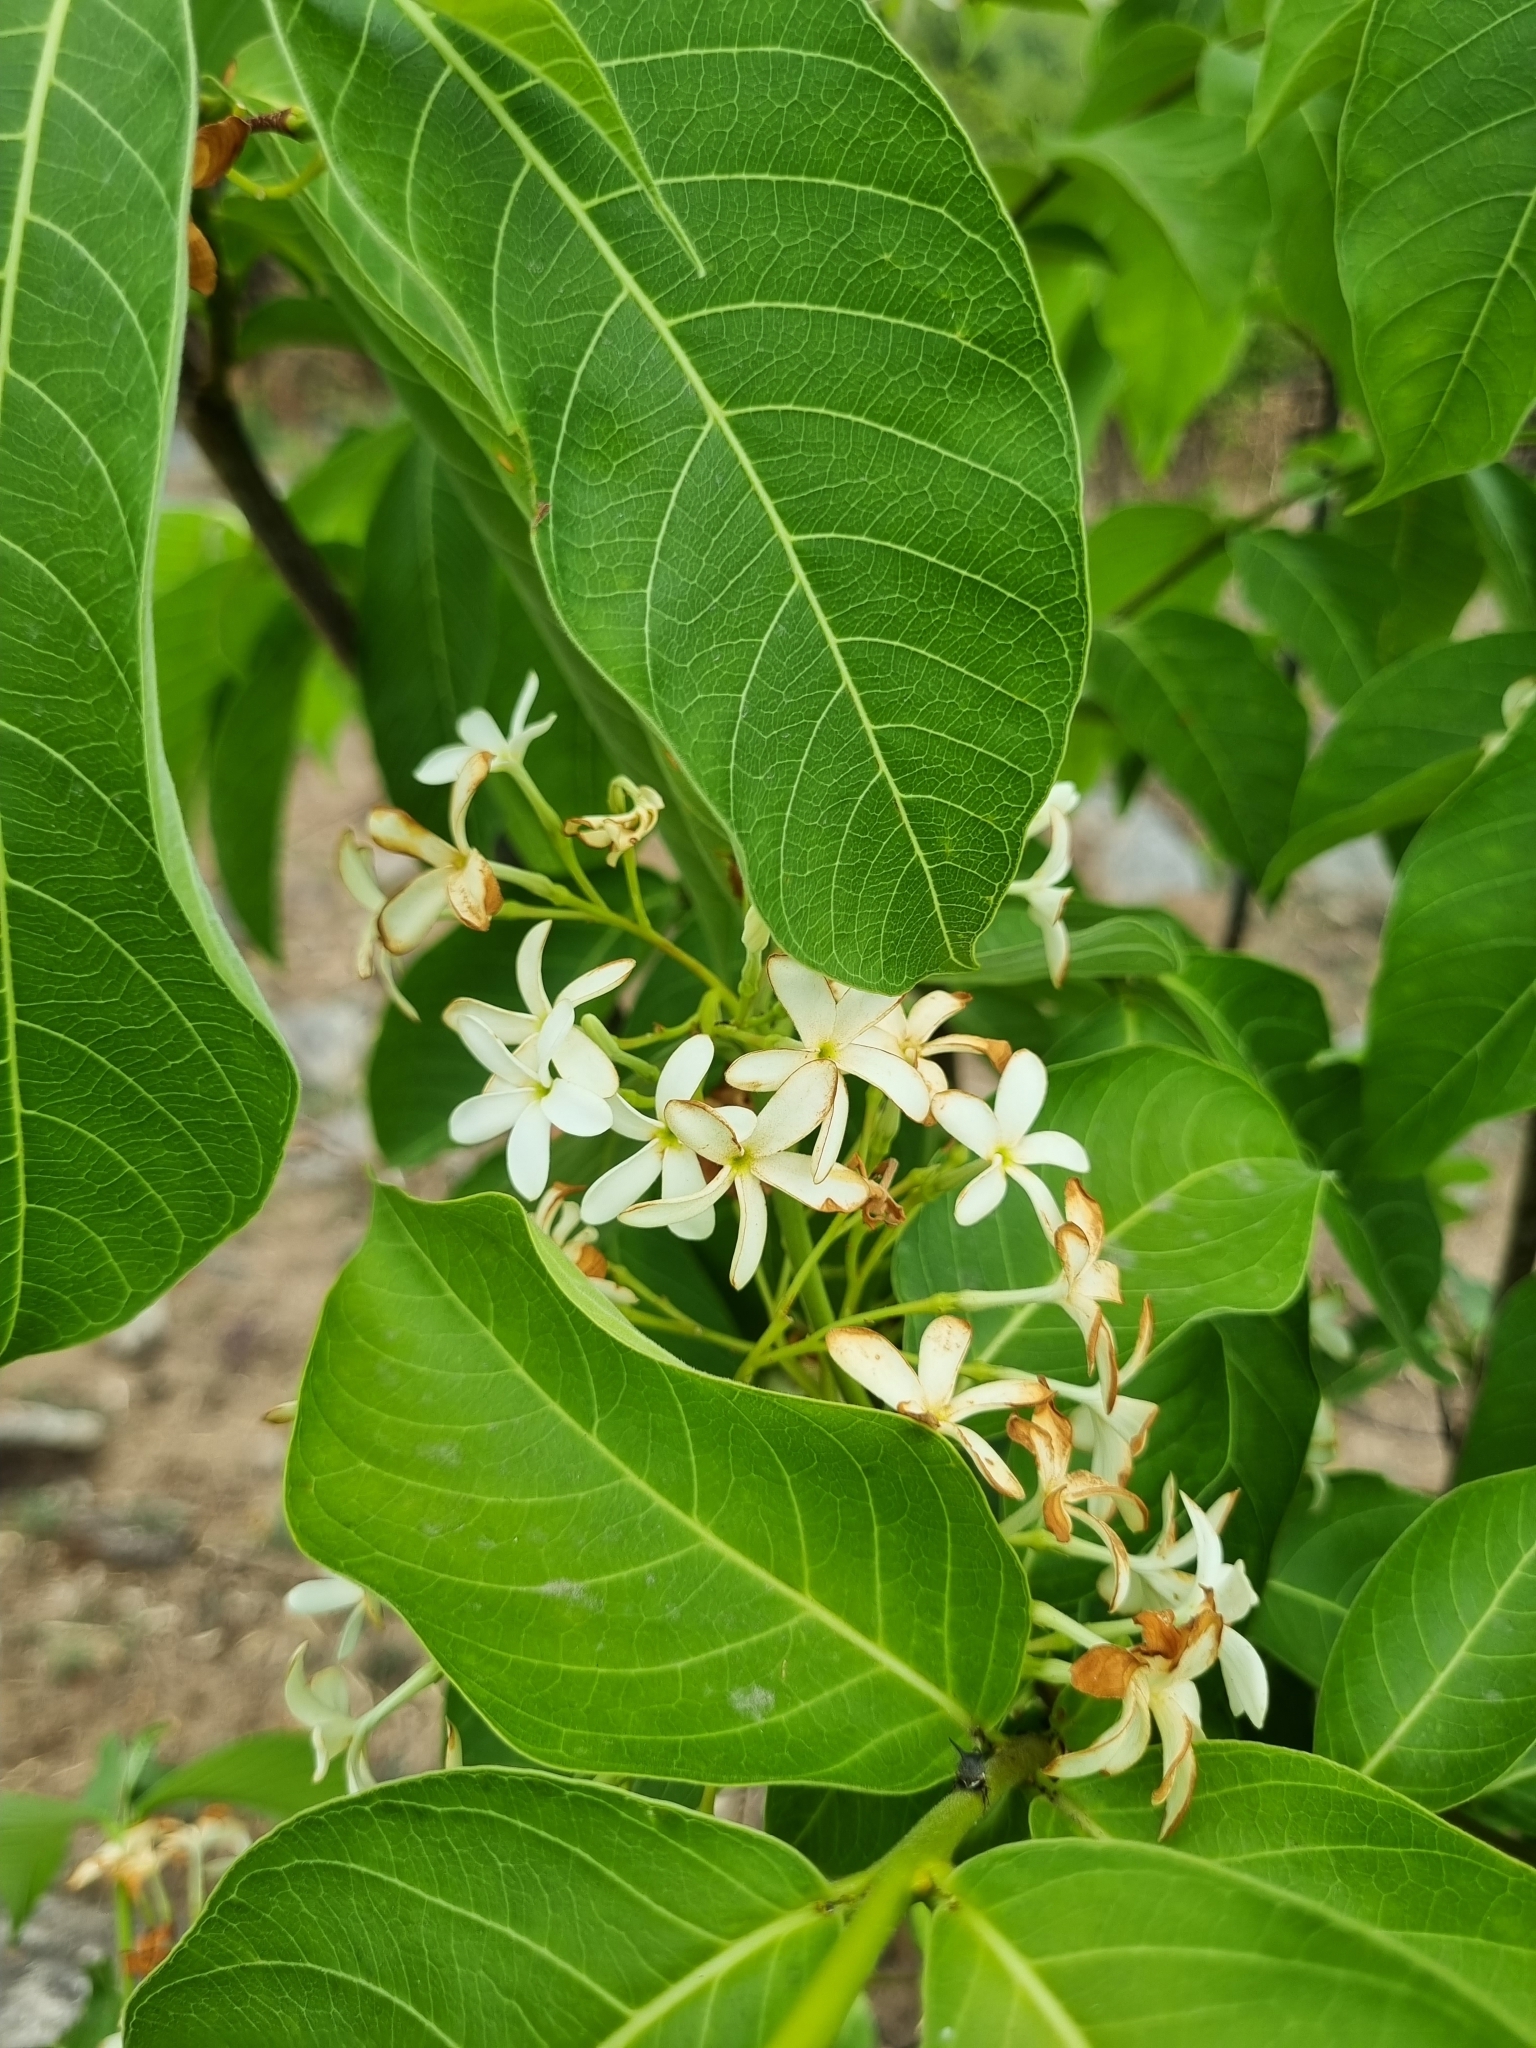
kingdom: Plantae
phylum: Tracheophyta
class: Magnoliopsida
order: Gentianales
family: Apocynaceae
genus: Holarrhena
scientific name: Holarrhena pubescens
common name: Bitter oleander
